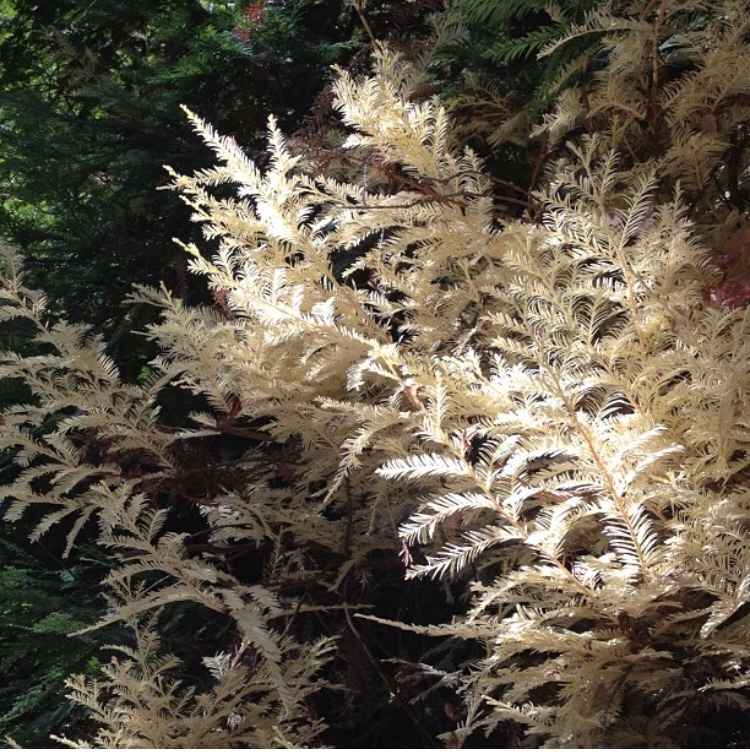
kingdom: Plantae
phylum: Tracheophyta
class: Pinopsida
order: Pinales
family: Cupressaceae
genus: Sequoia
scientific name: Sequoia sempervirens
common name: Coast redwood
